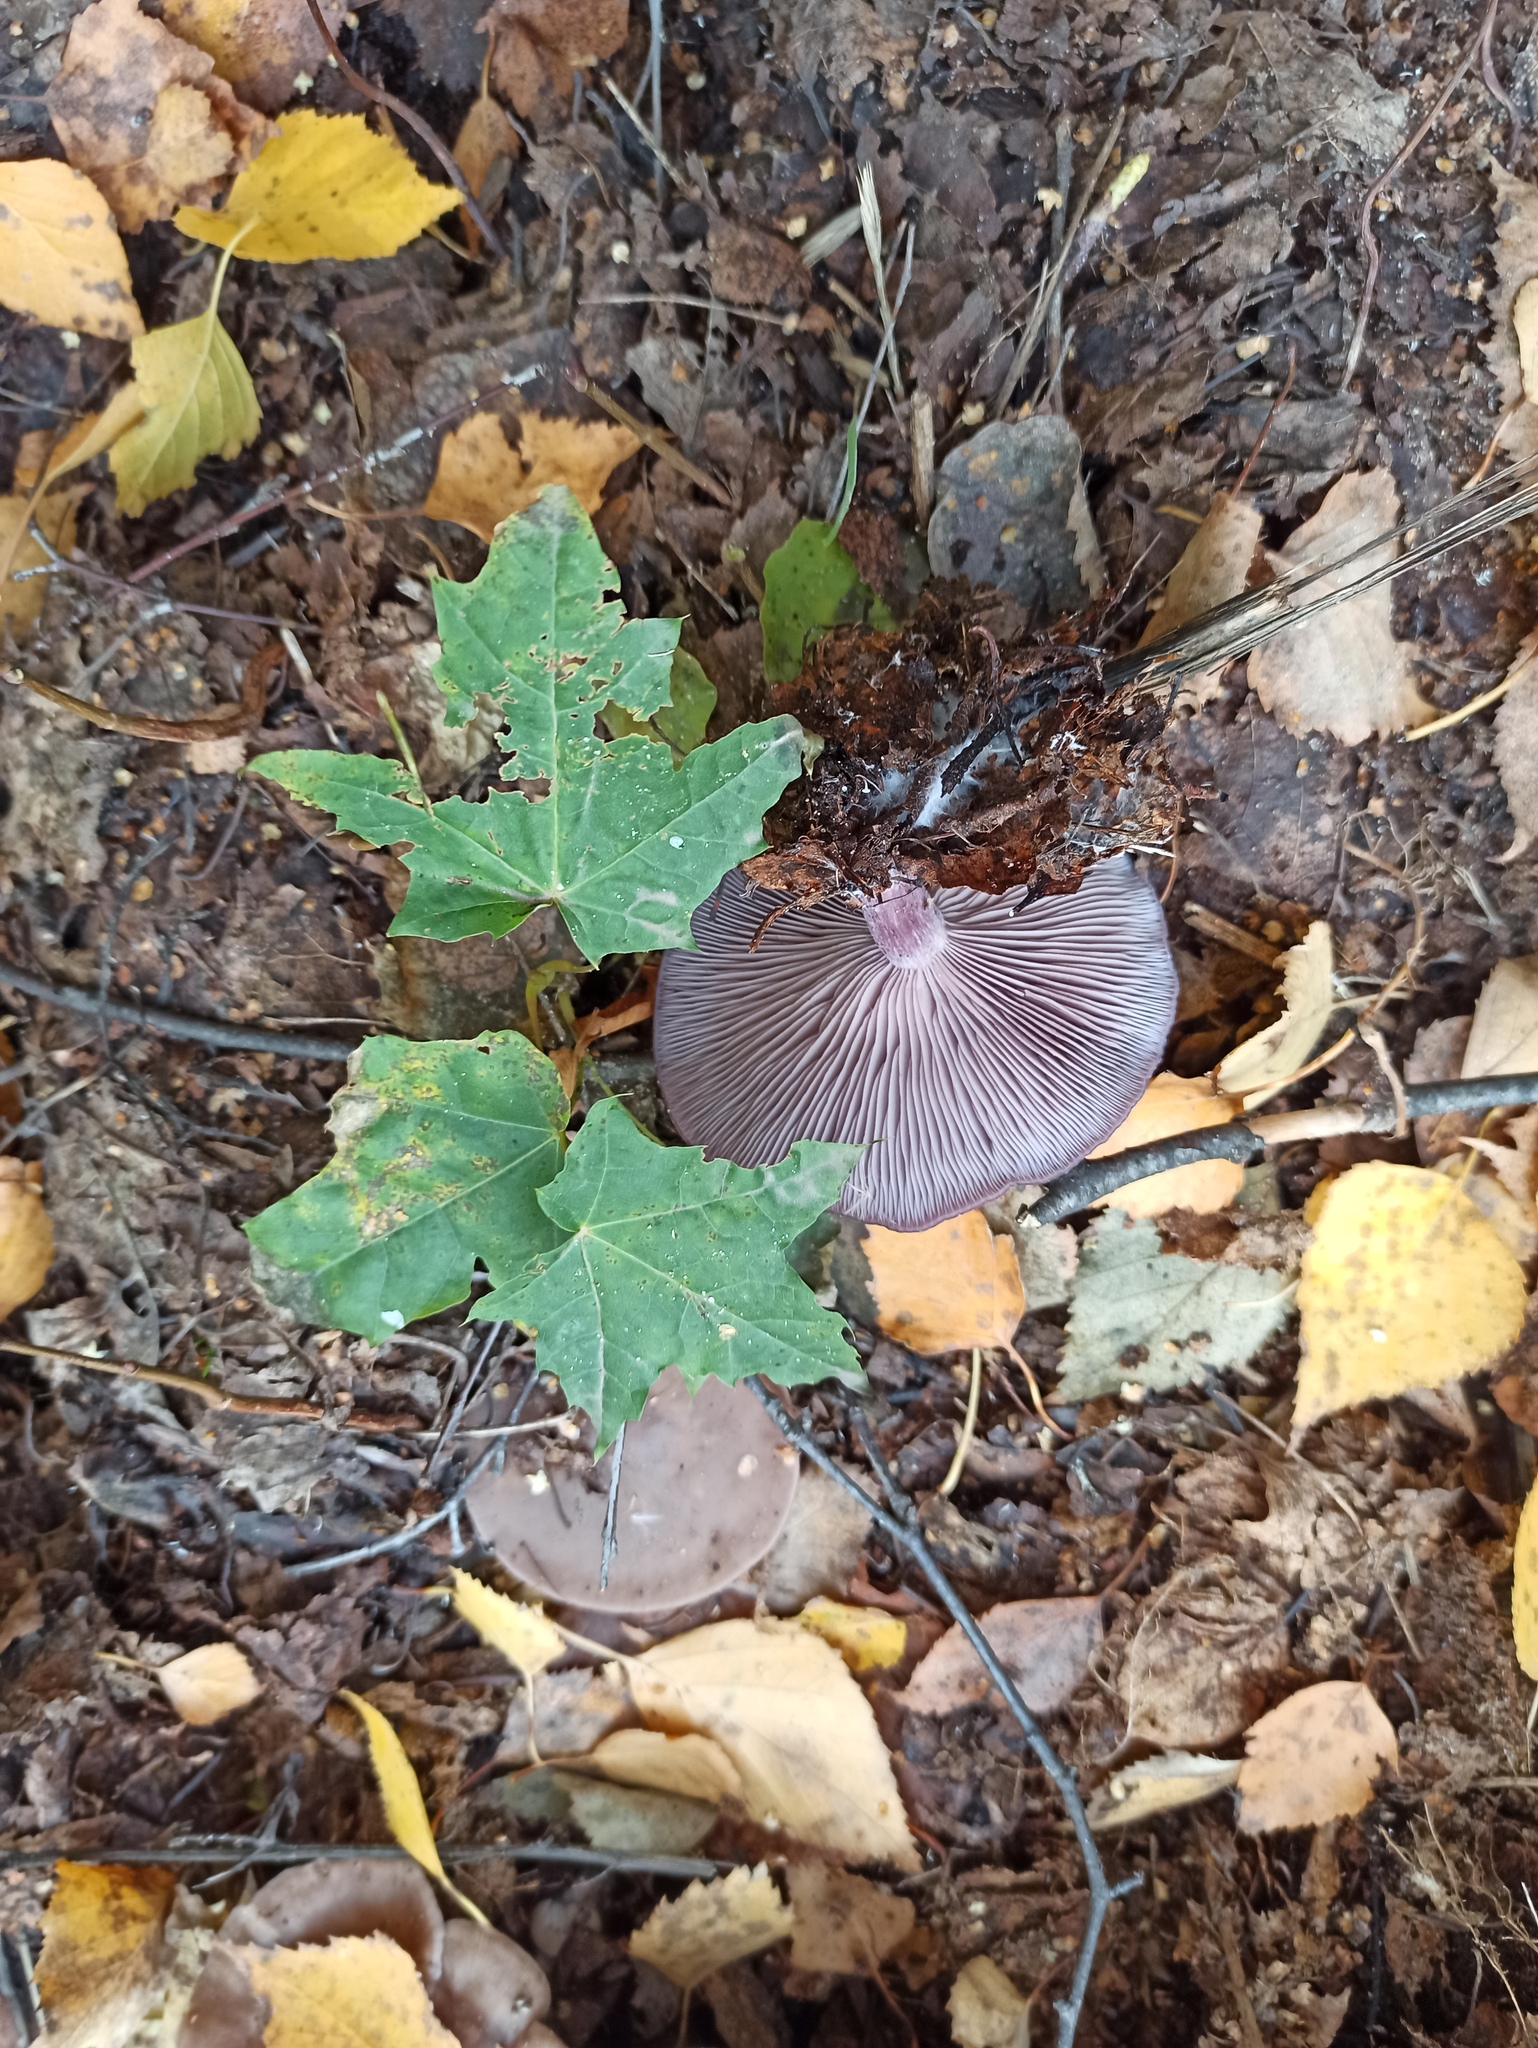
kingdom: Fungi
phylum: Basidiomycota
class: Agaricomycetes
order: Agaricales
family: Tricholomataceae
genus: Collybia
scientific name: Collybia
